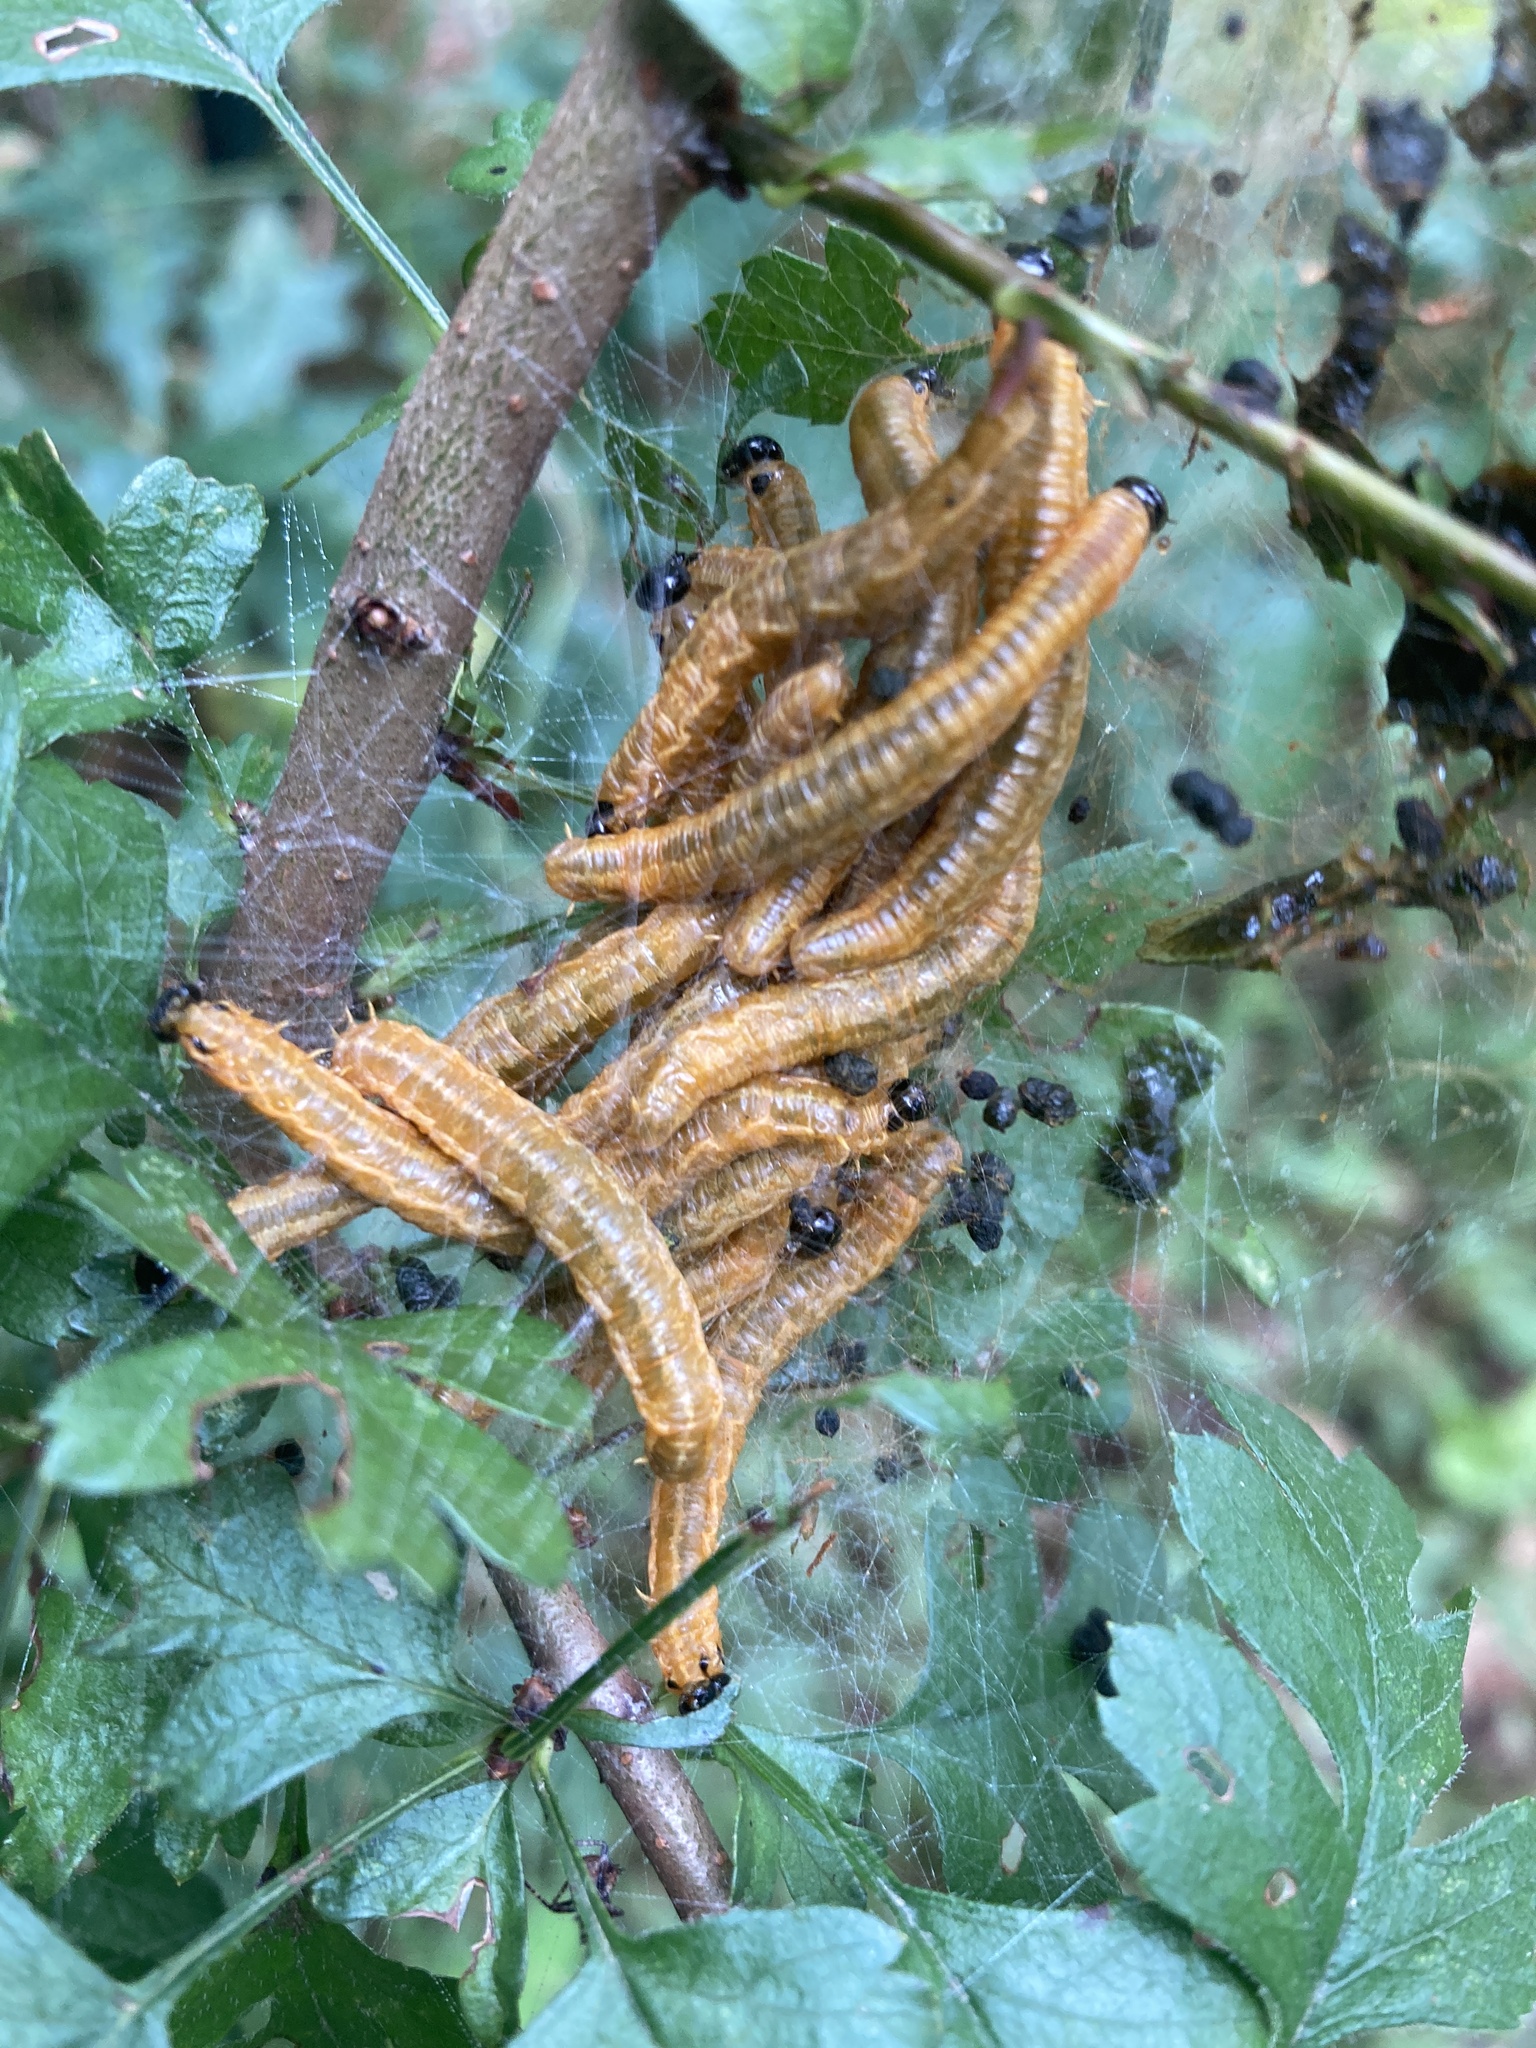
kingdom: Animalia
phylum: Arthropoda
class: Insecta
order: Hymenoptera
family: Pamphiliidae
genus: Neurotoma
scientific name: Neurotoma saltuum
